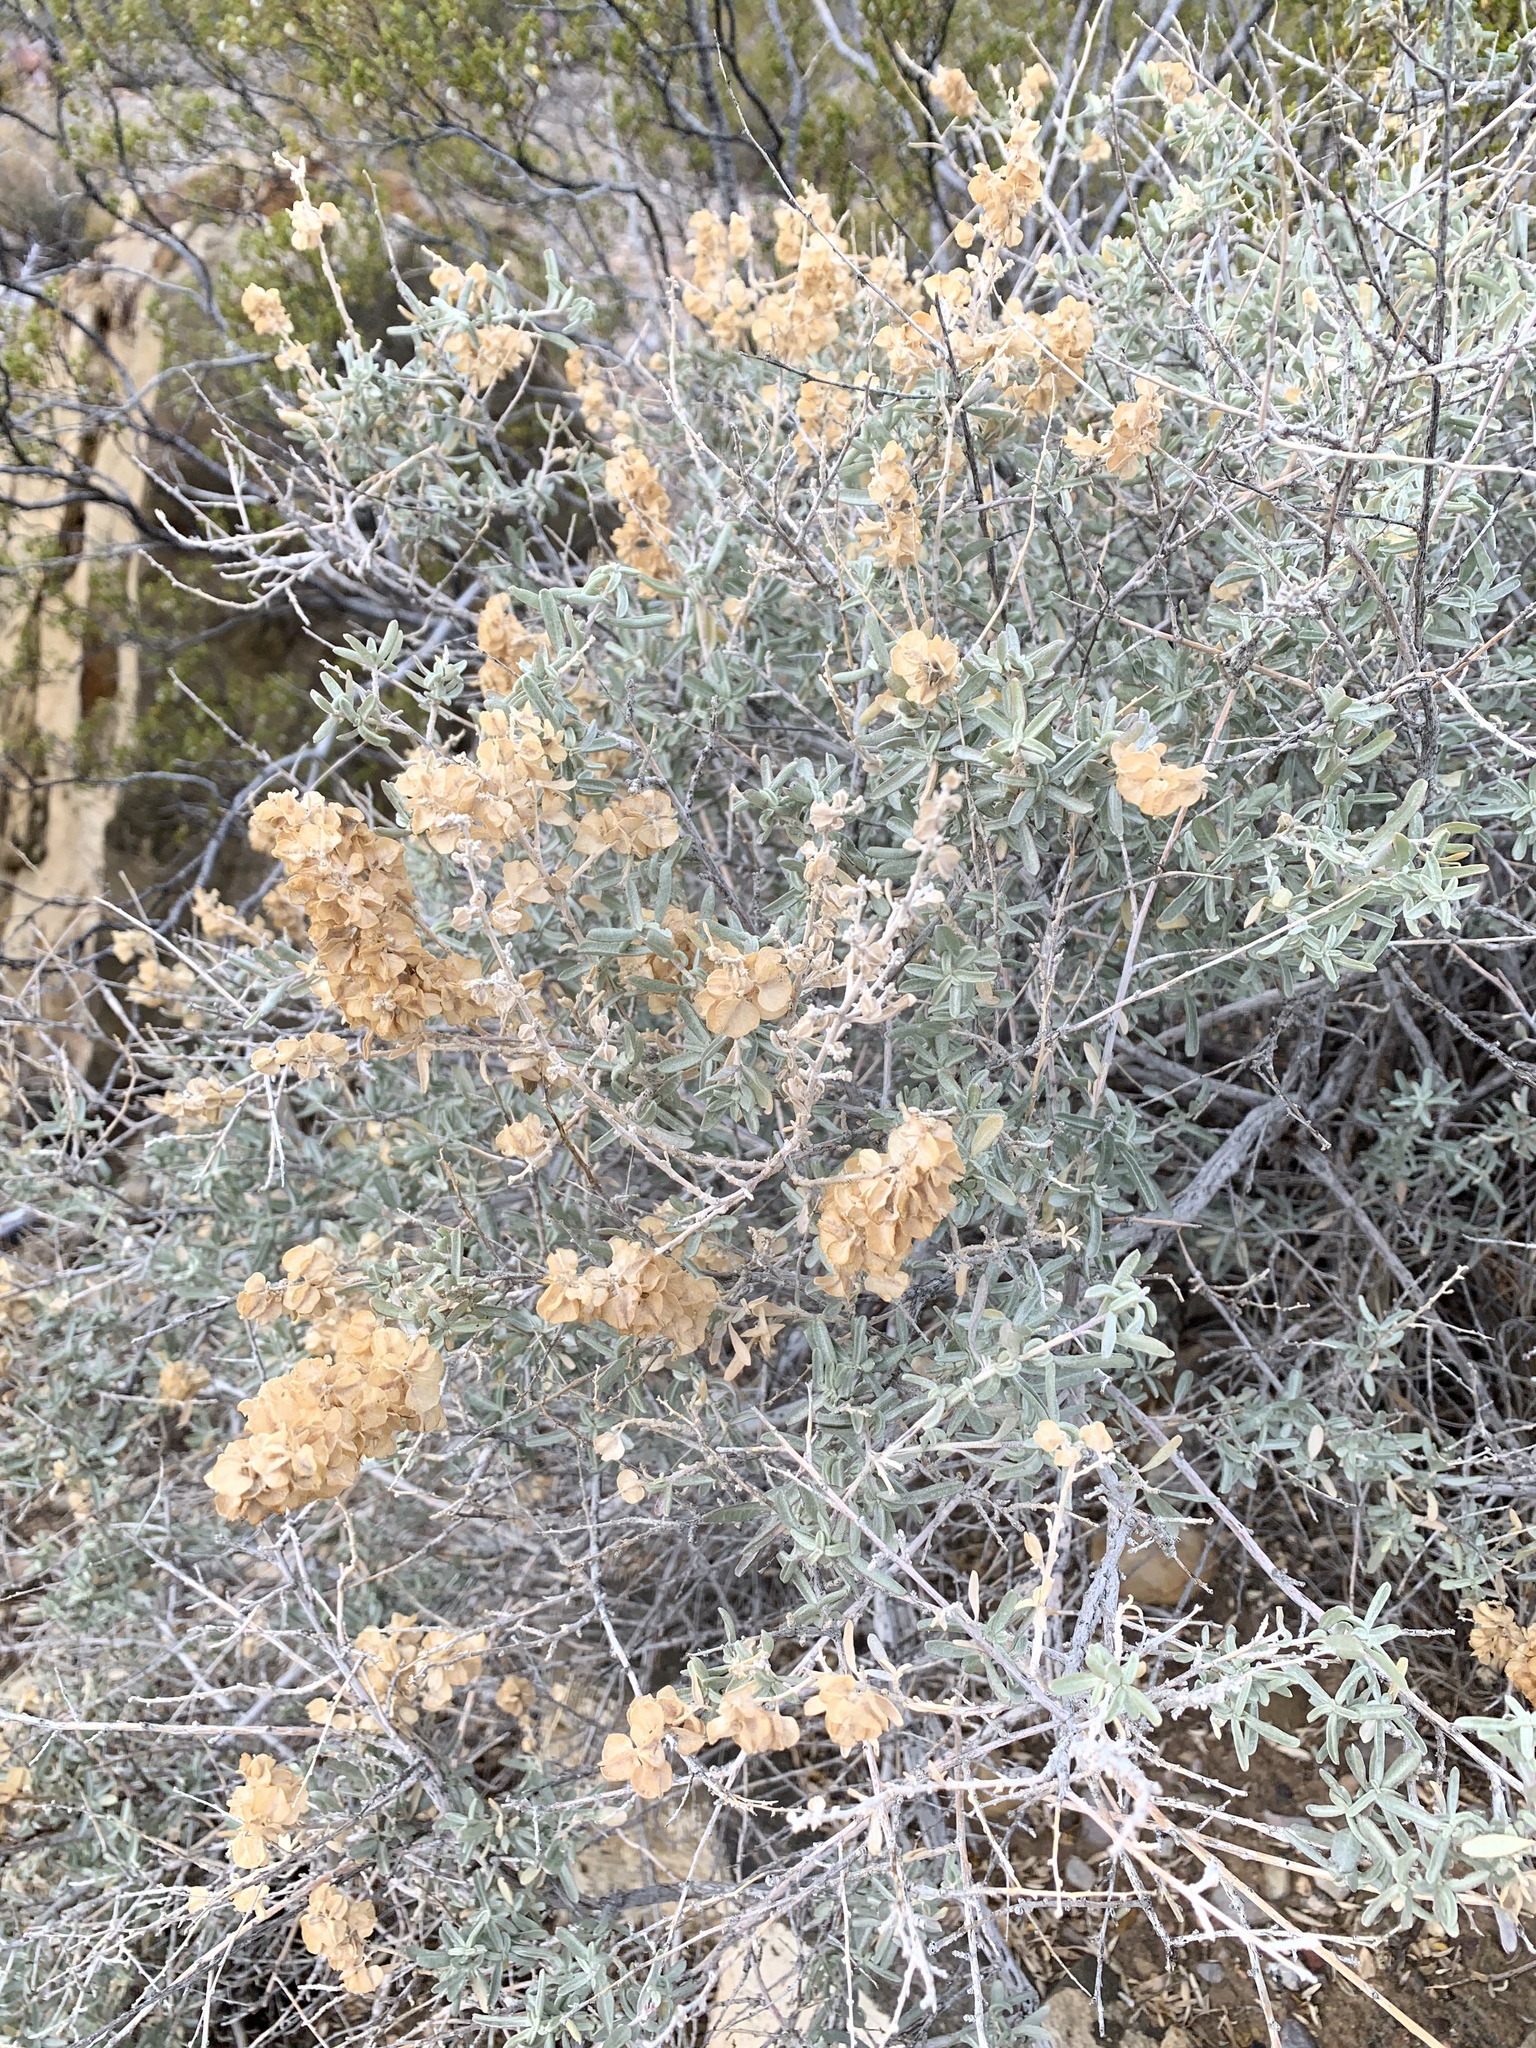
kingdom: Plantae
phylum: Tracheophyta
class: Magnoliopsida
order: Caryophyllales
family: Amaranthaceae
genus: Atriplex
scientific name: Atriplex canescens
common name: Four-wing saltbush
